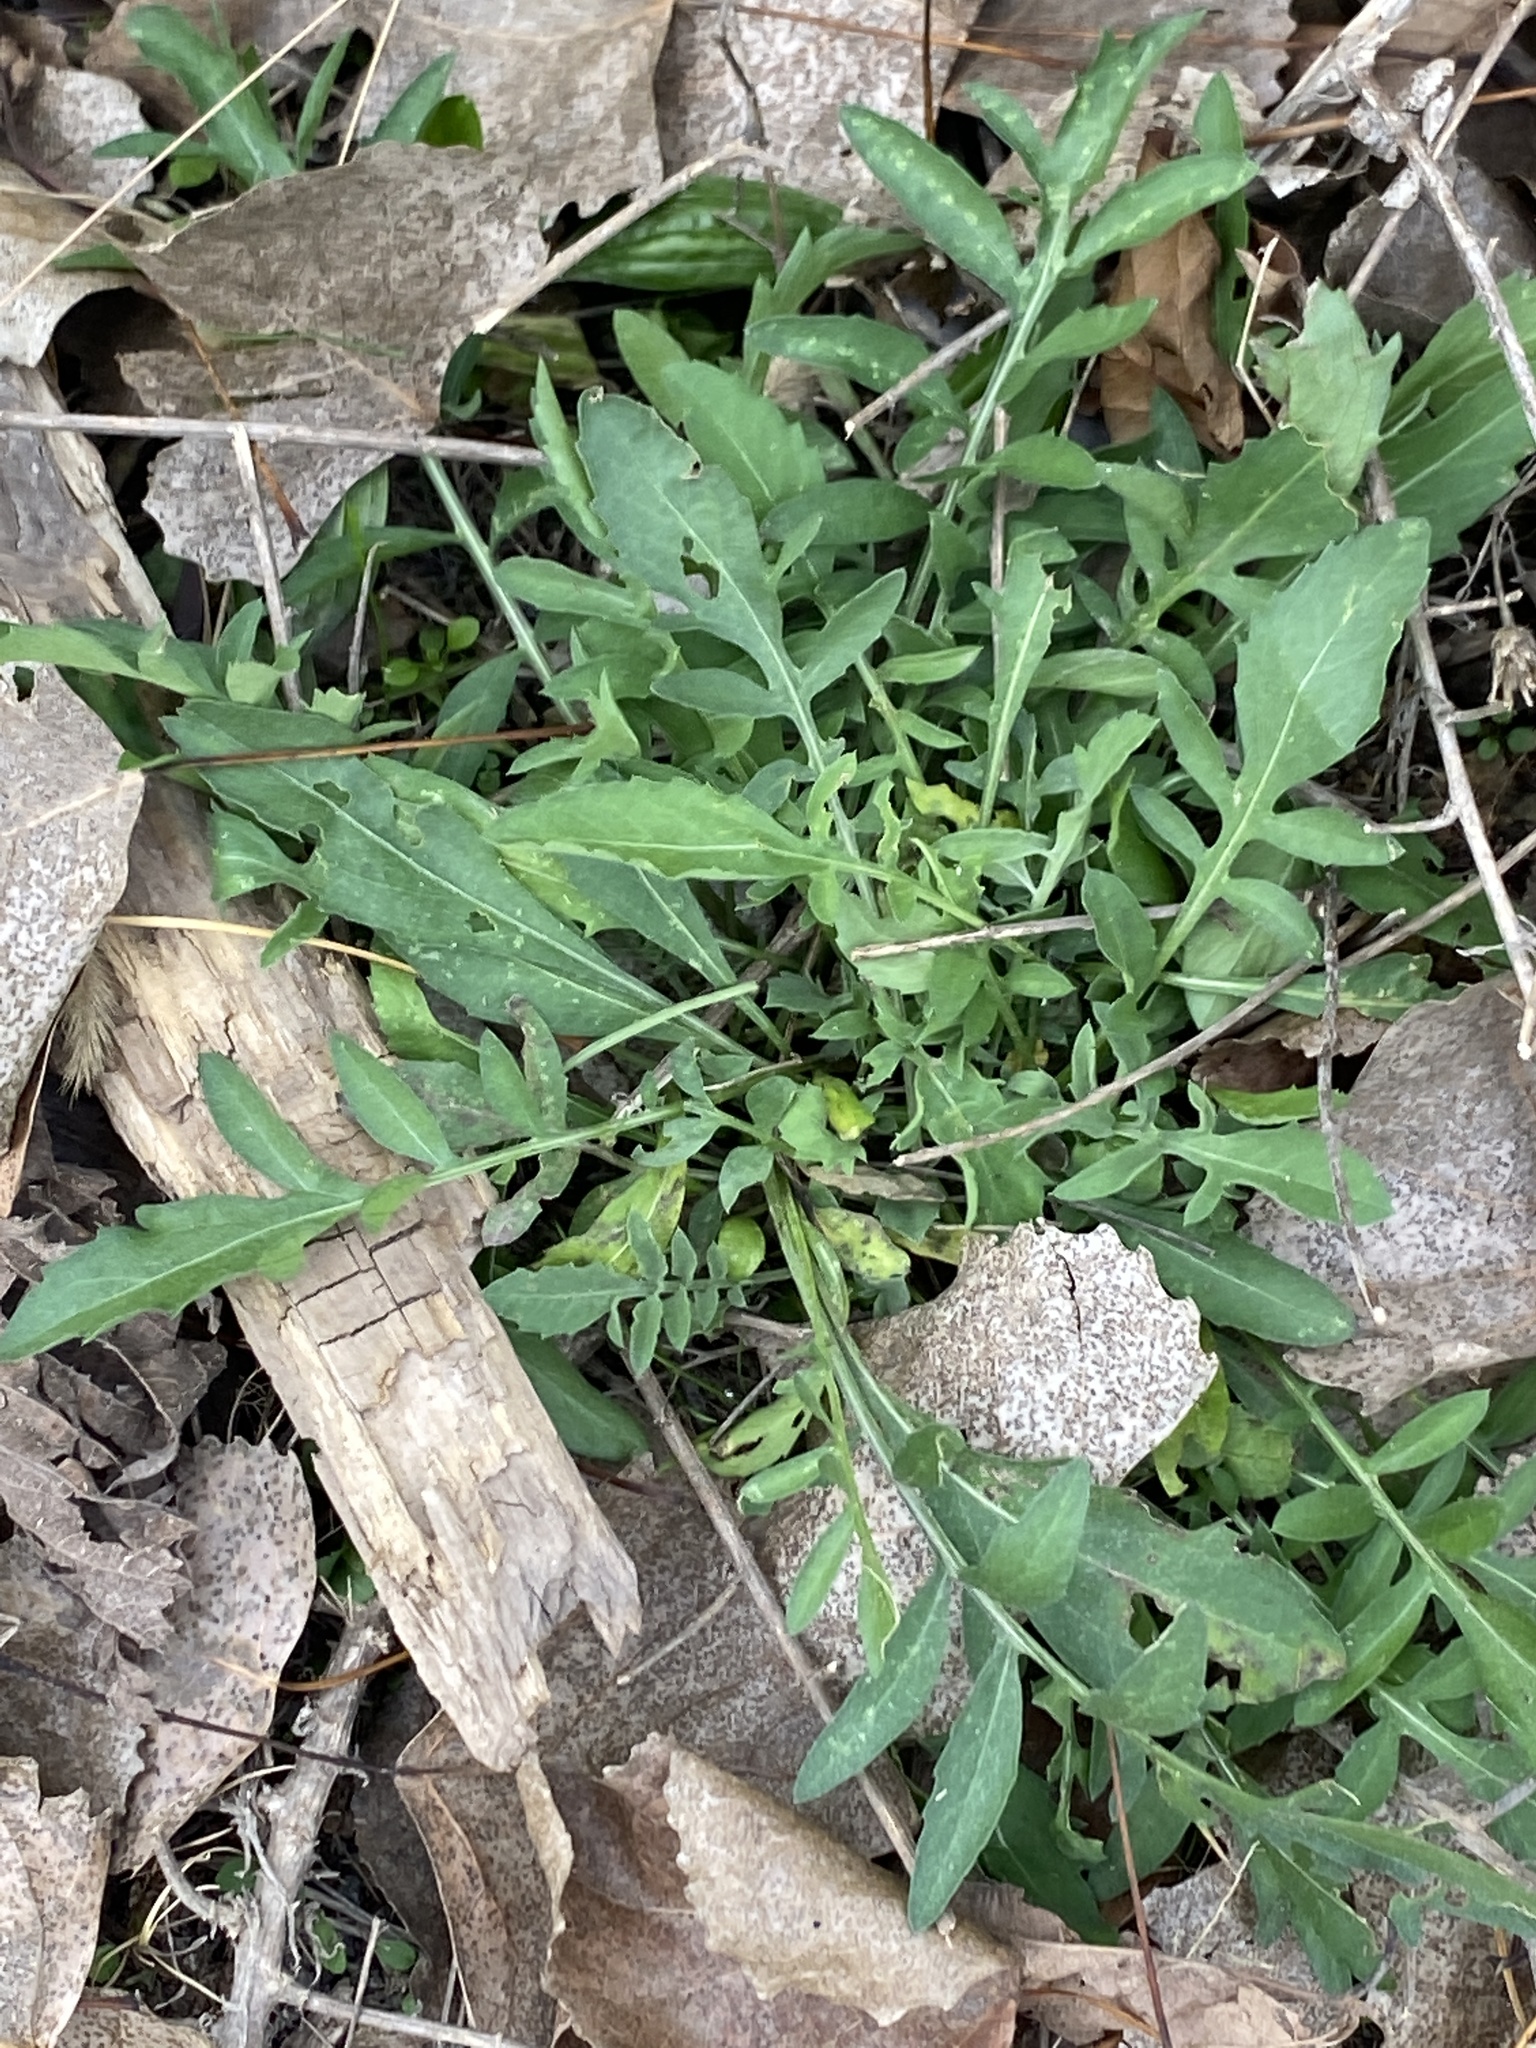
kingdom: Plantae
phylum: Tracheophyta
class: Magnoliopsida
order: Asterales
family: Asteraceae
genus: Centaurea
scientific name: Centaurea stoebe
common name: Spotted knapweed
